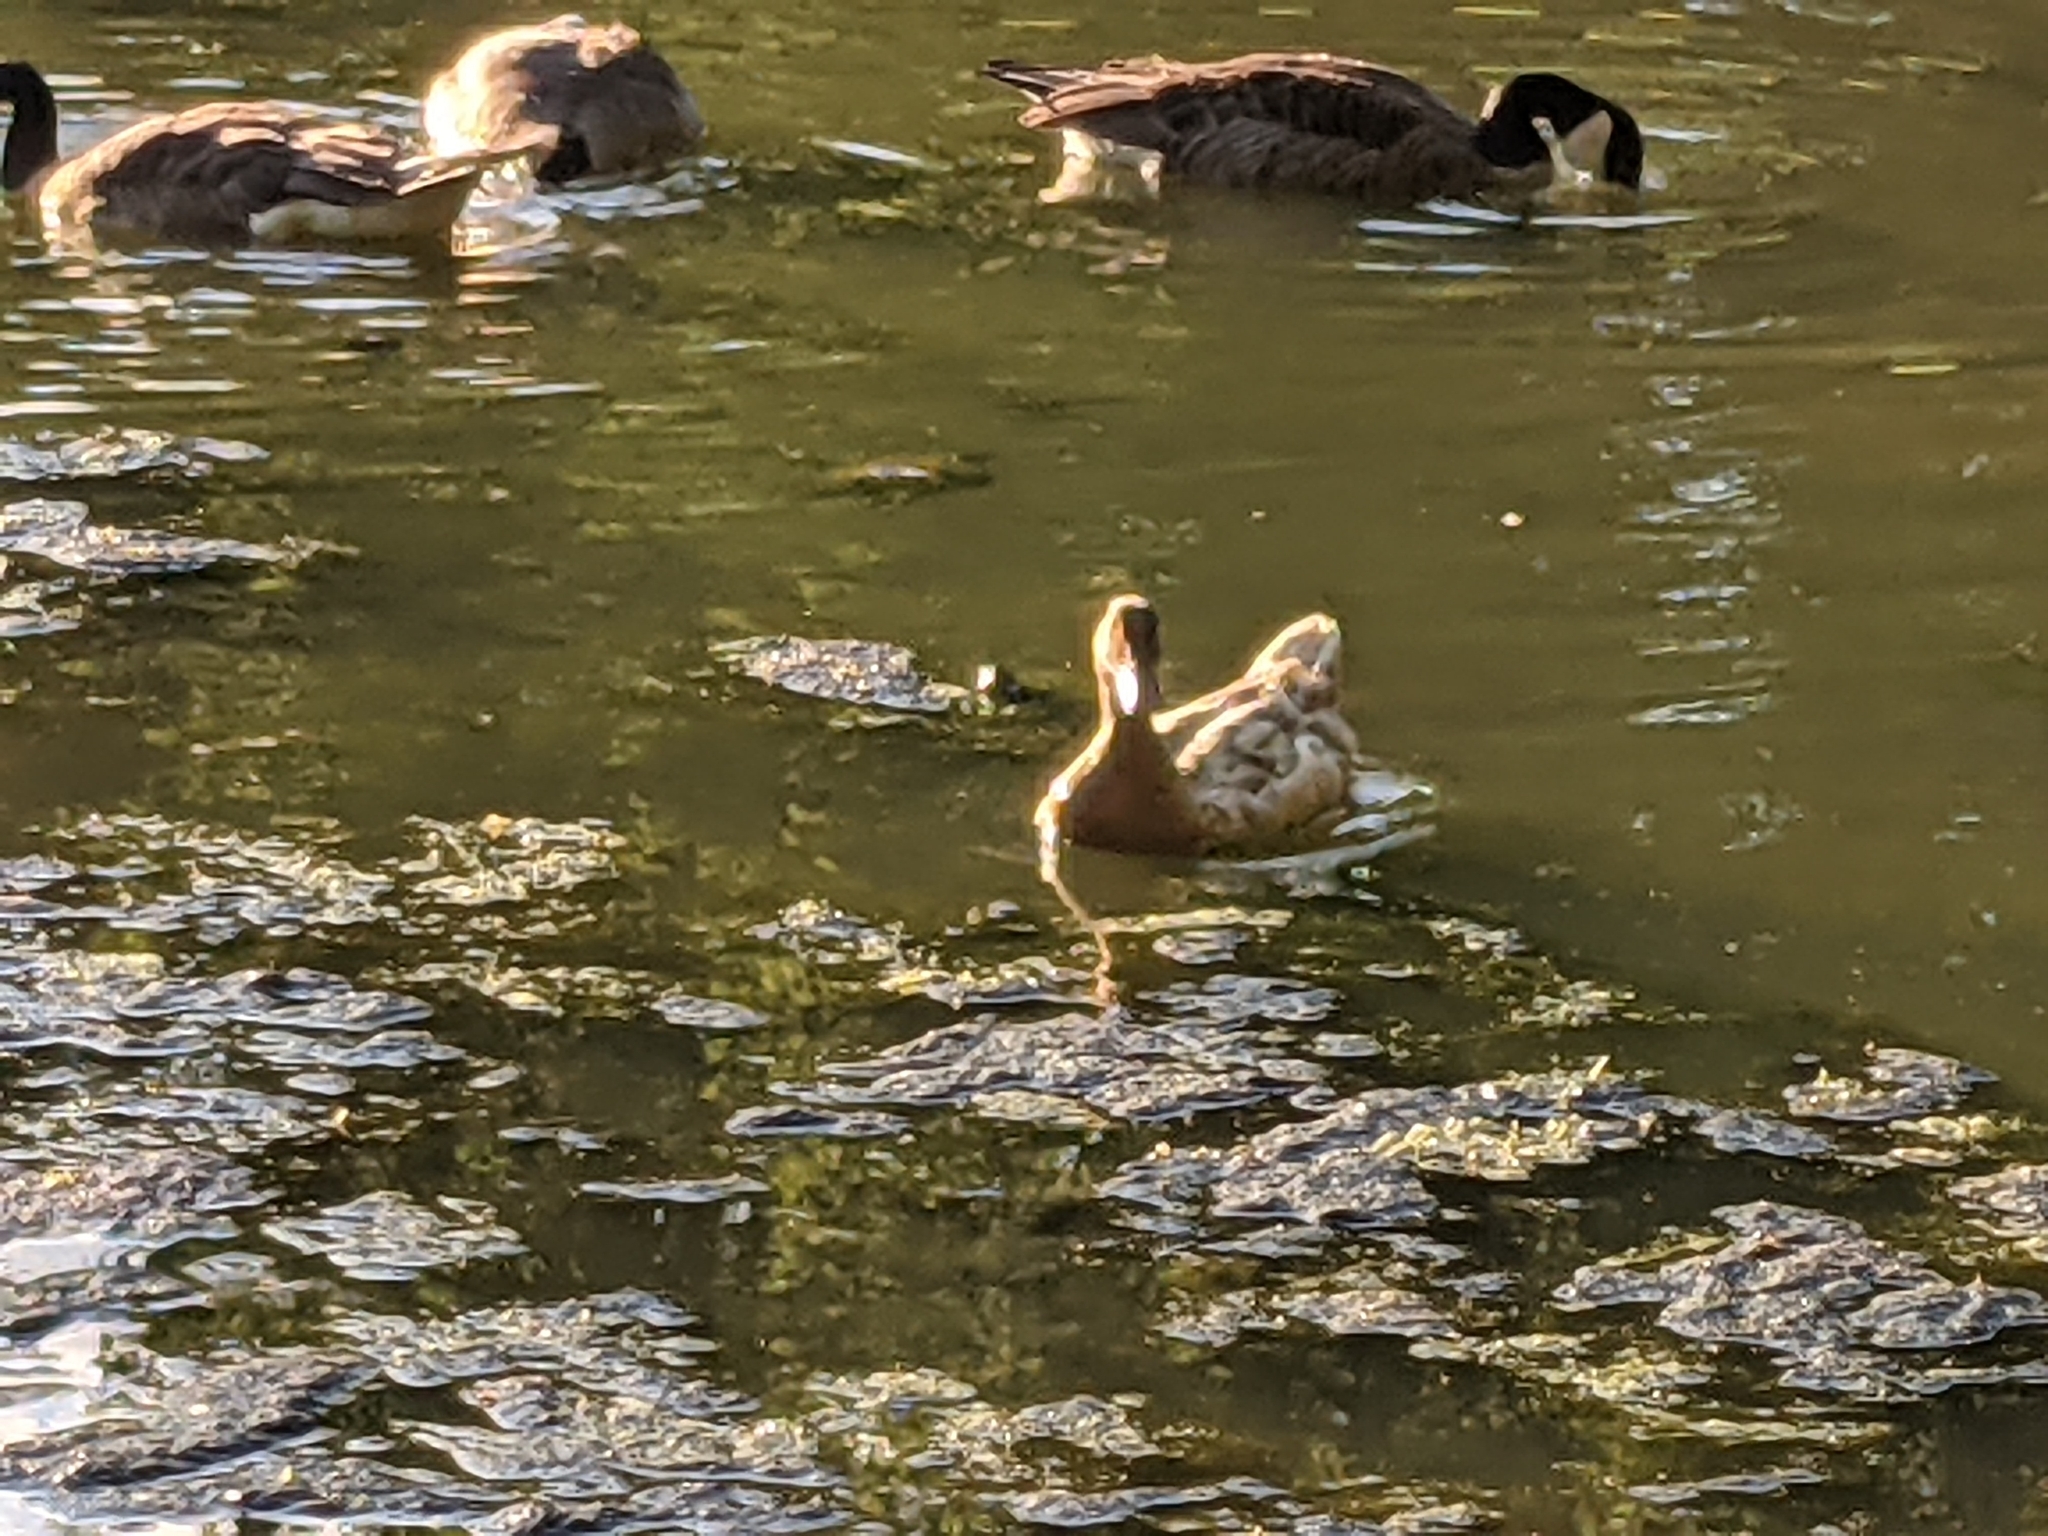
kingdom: Animalia
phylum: Chordata
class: Aves
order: Anseriformes
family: Anatidae
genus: Anas
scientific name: Anas platyrhynchos
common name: Mallard
